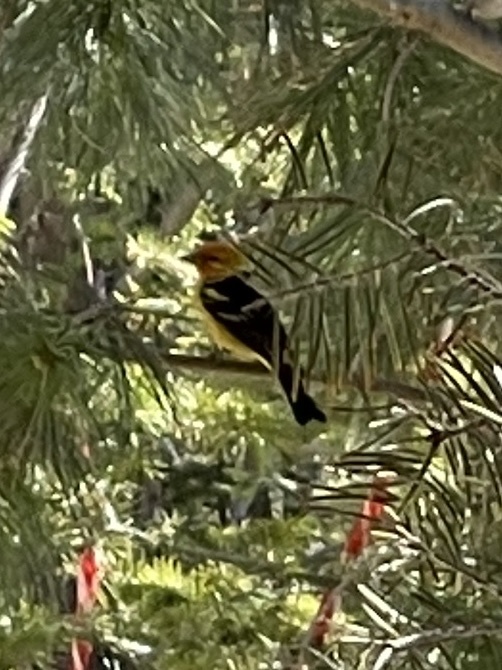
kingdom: Animalia
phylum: Chordata
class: Aves
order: Passeriformes
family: Cardinalidae
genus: Piranga
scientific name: Piranga ludoviciana
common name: Western tanager
